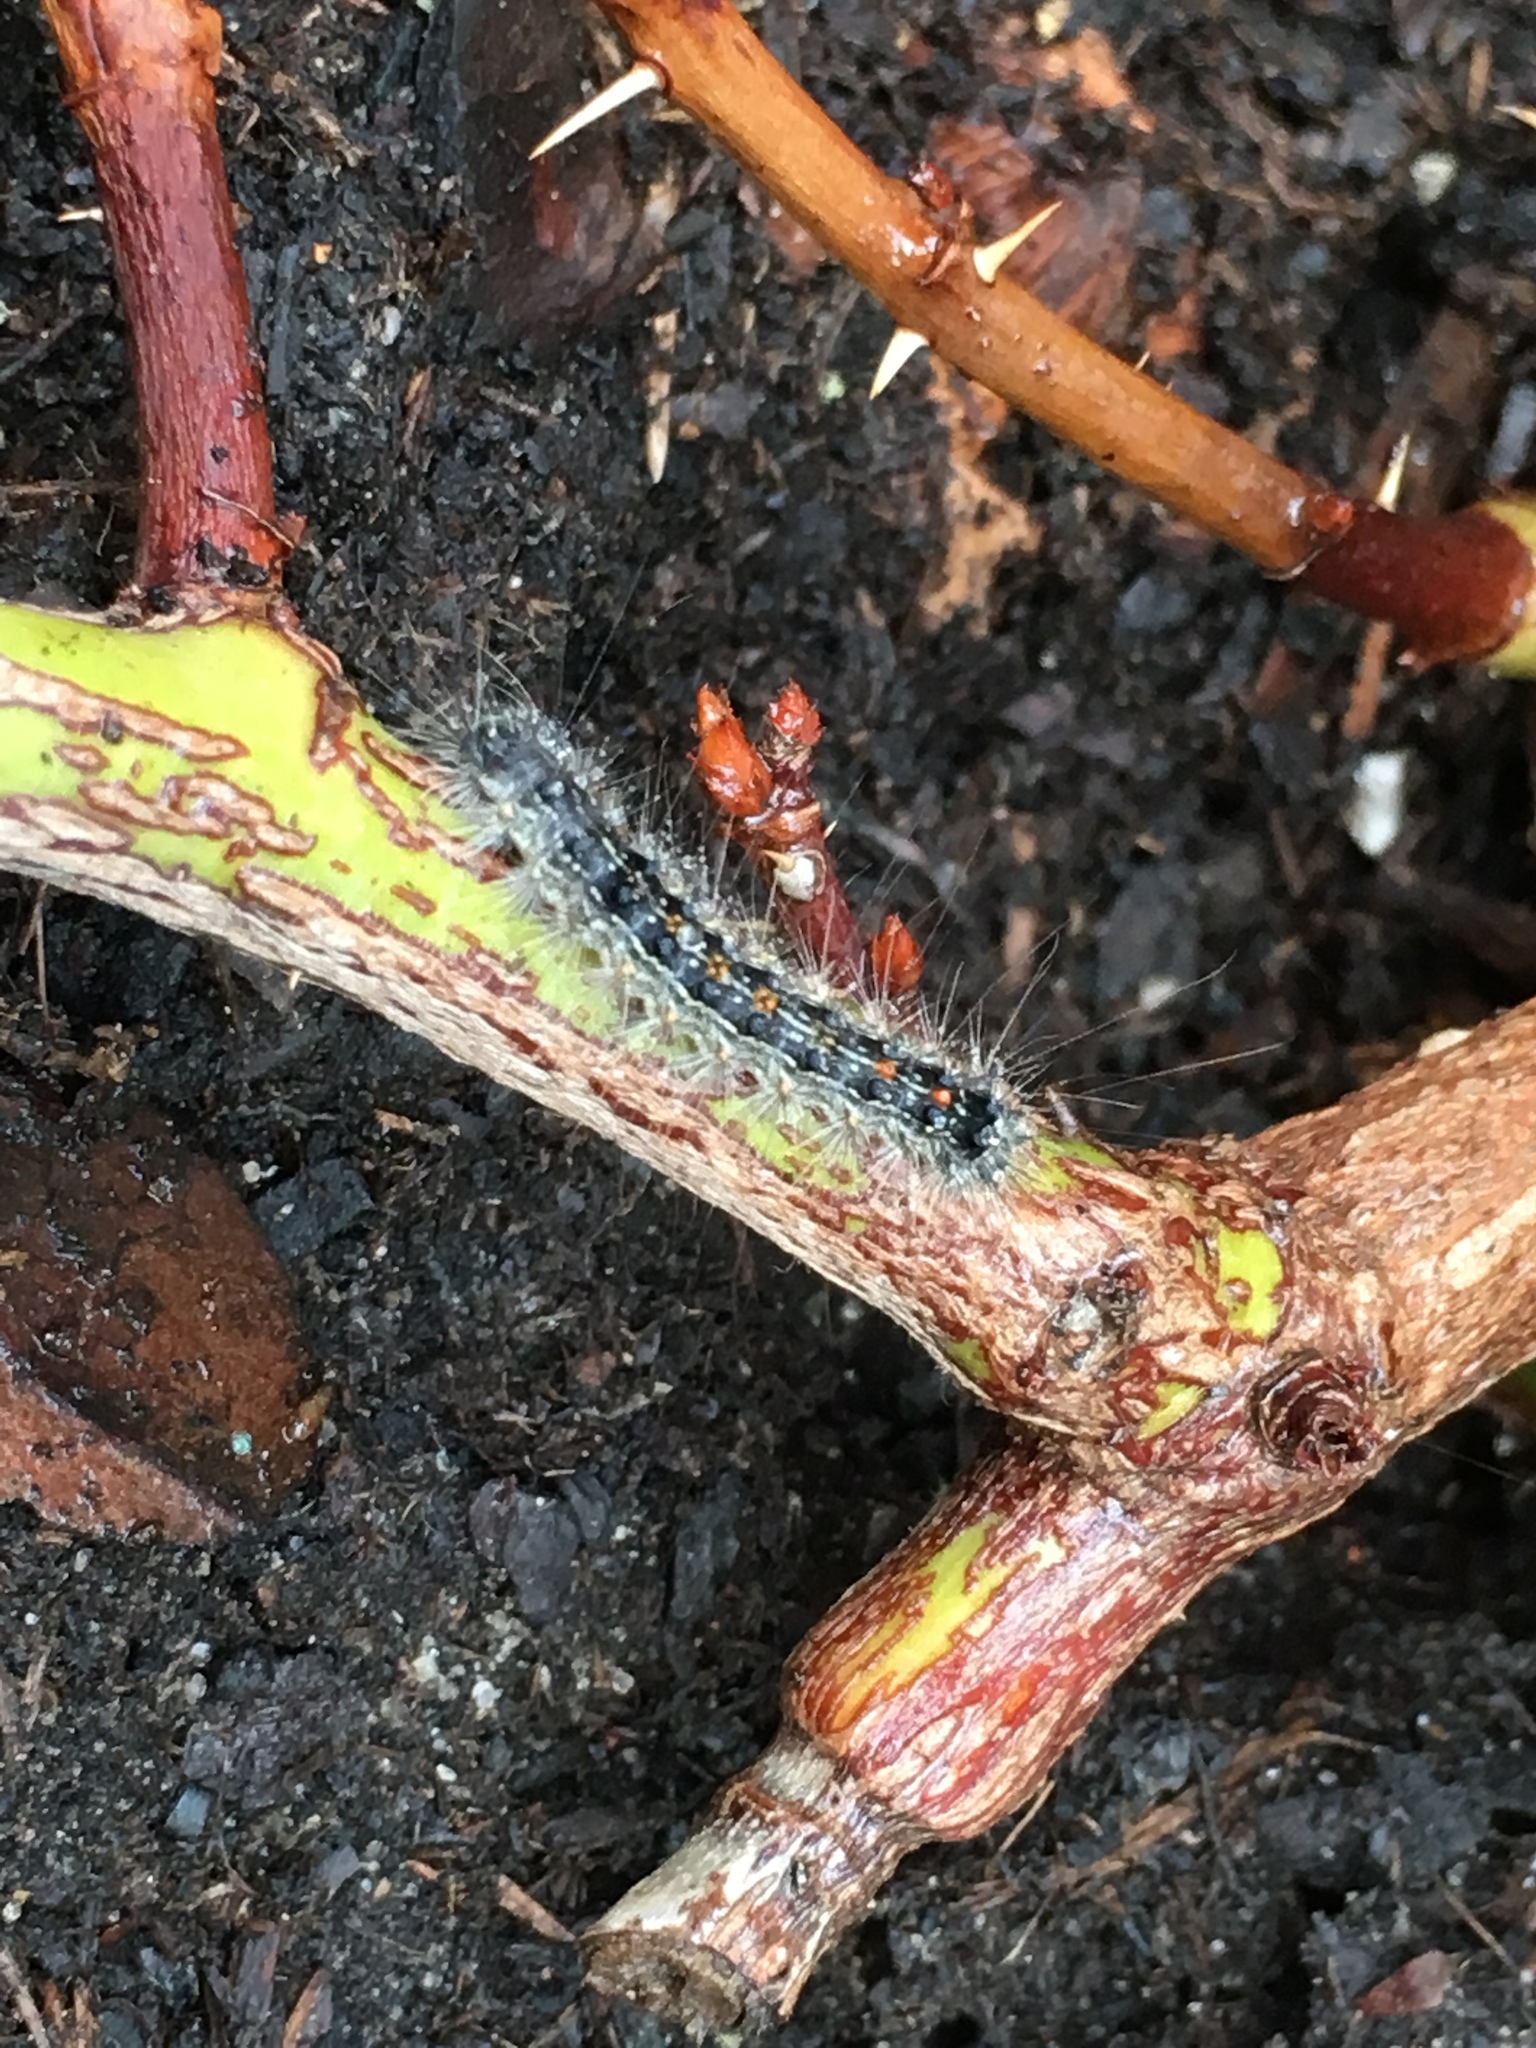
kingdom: Animalia
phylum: Arthropoda
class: Insecta
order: Lepidoptera
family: Erebidae
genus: Lymantria
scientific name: Lymantria dispar
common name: Gypsy moth
